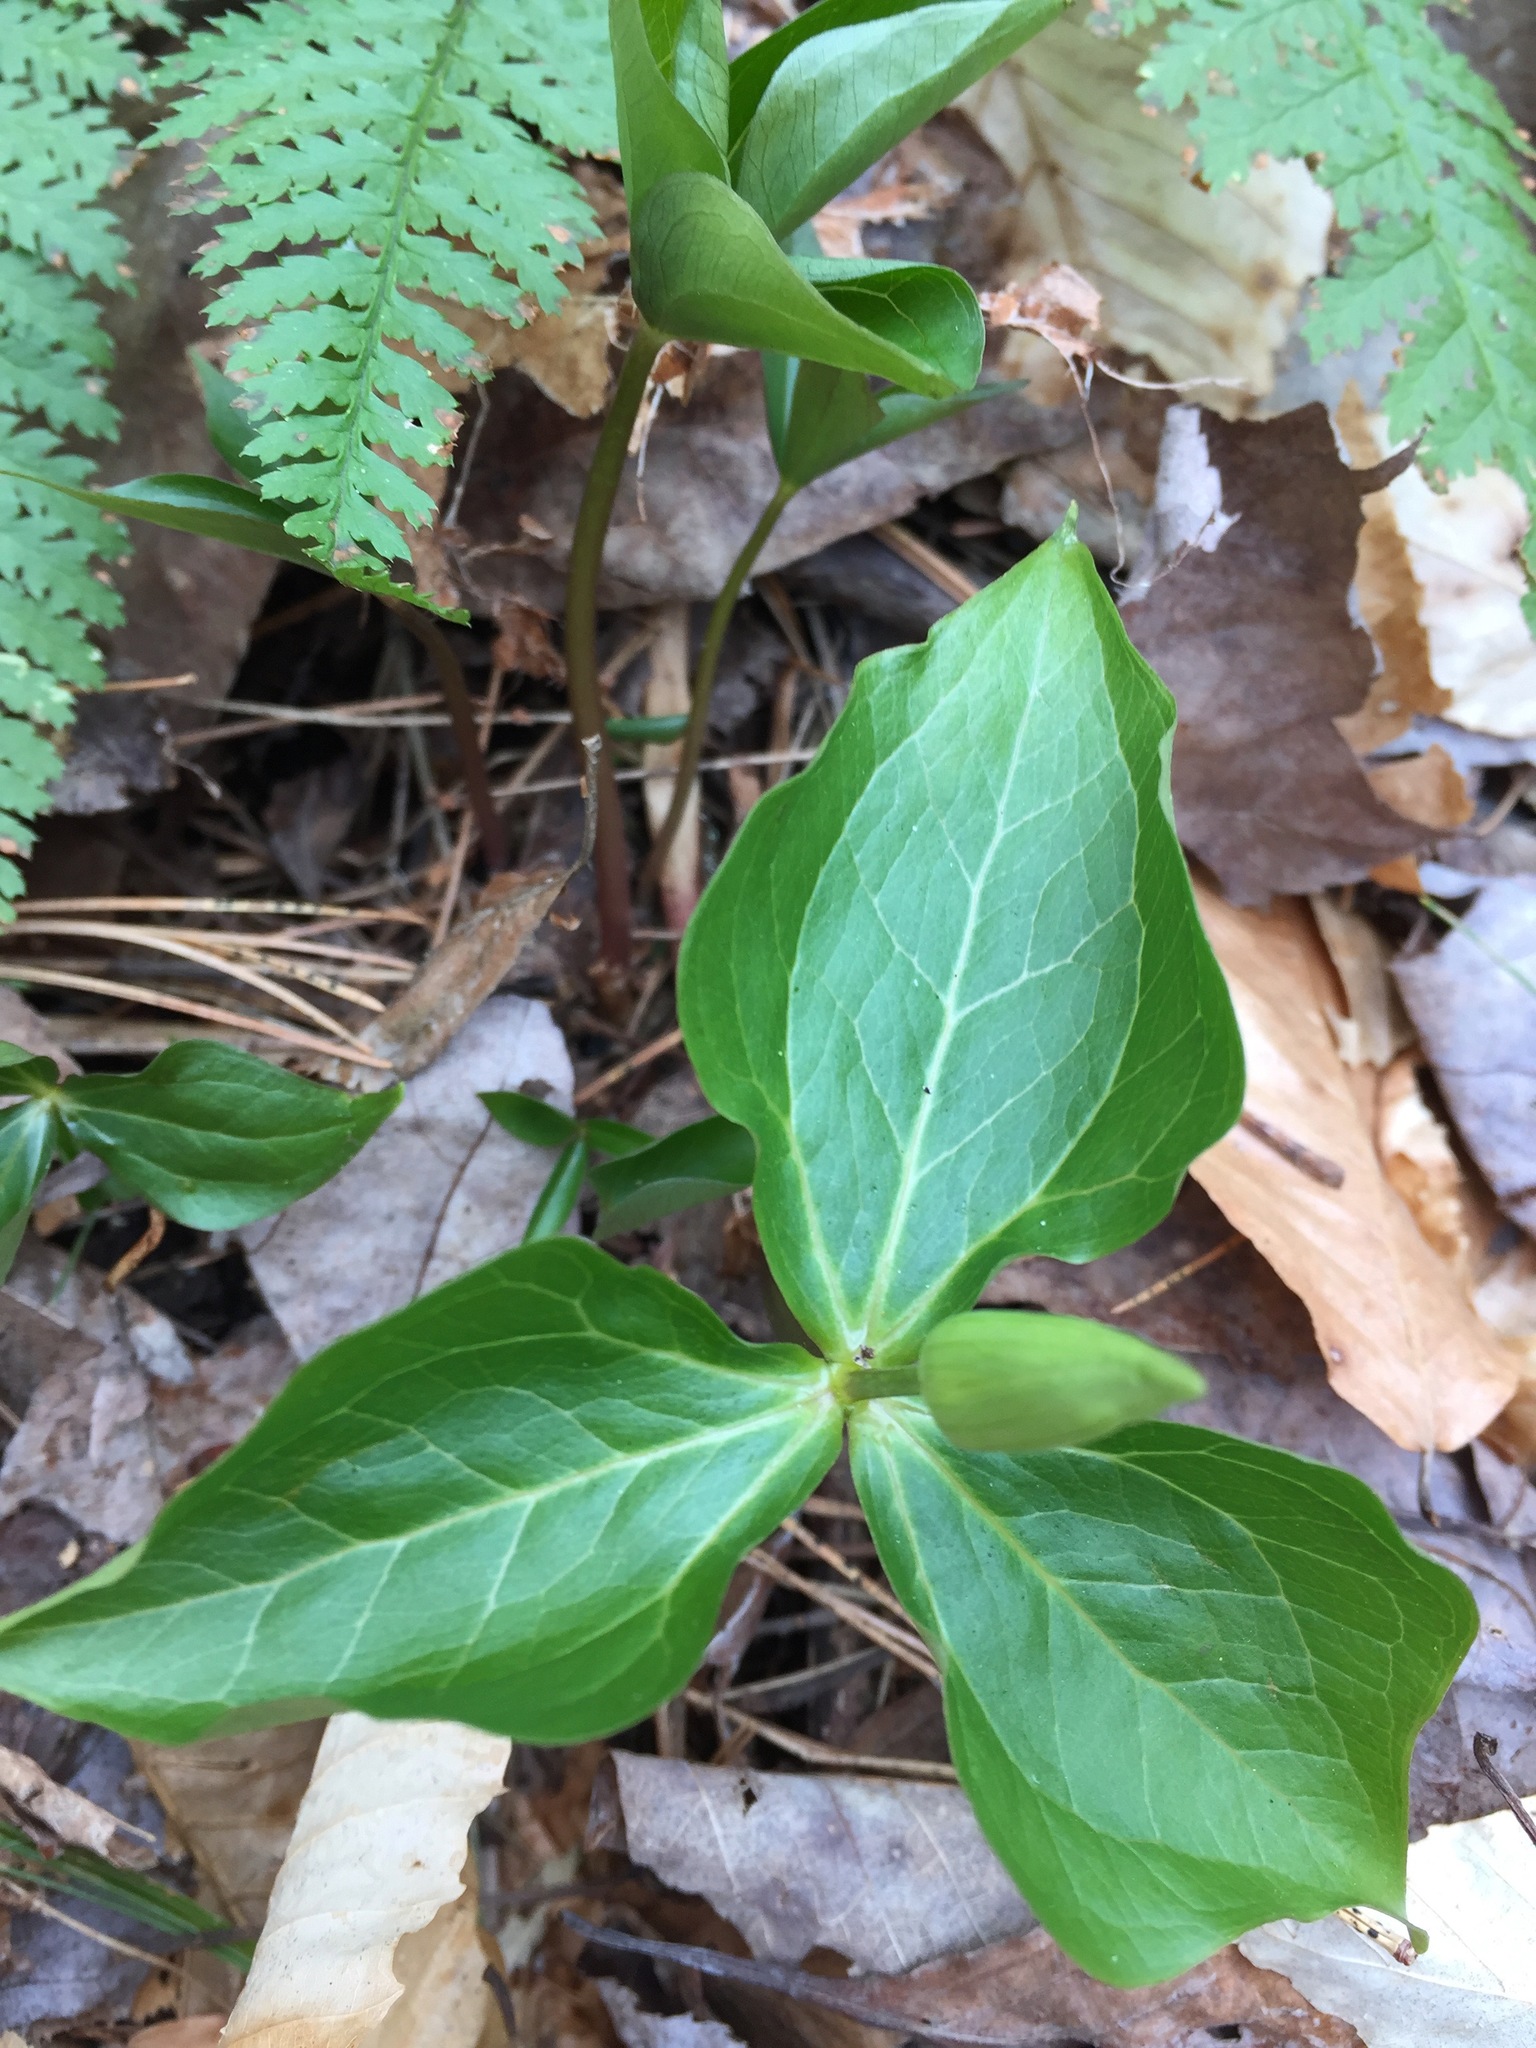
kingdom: Plantae
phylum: Tracheophyta
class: Liliopsida
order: Liliales
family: Melanthiaceae
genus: Trillium
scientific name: Trillium erectum
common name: Purple trillium
